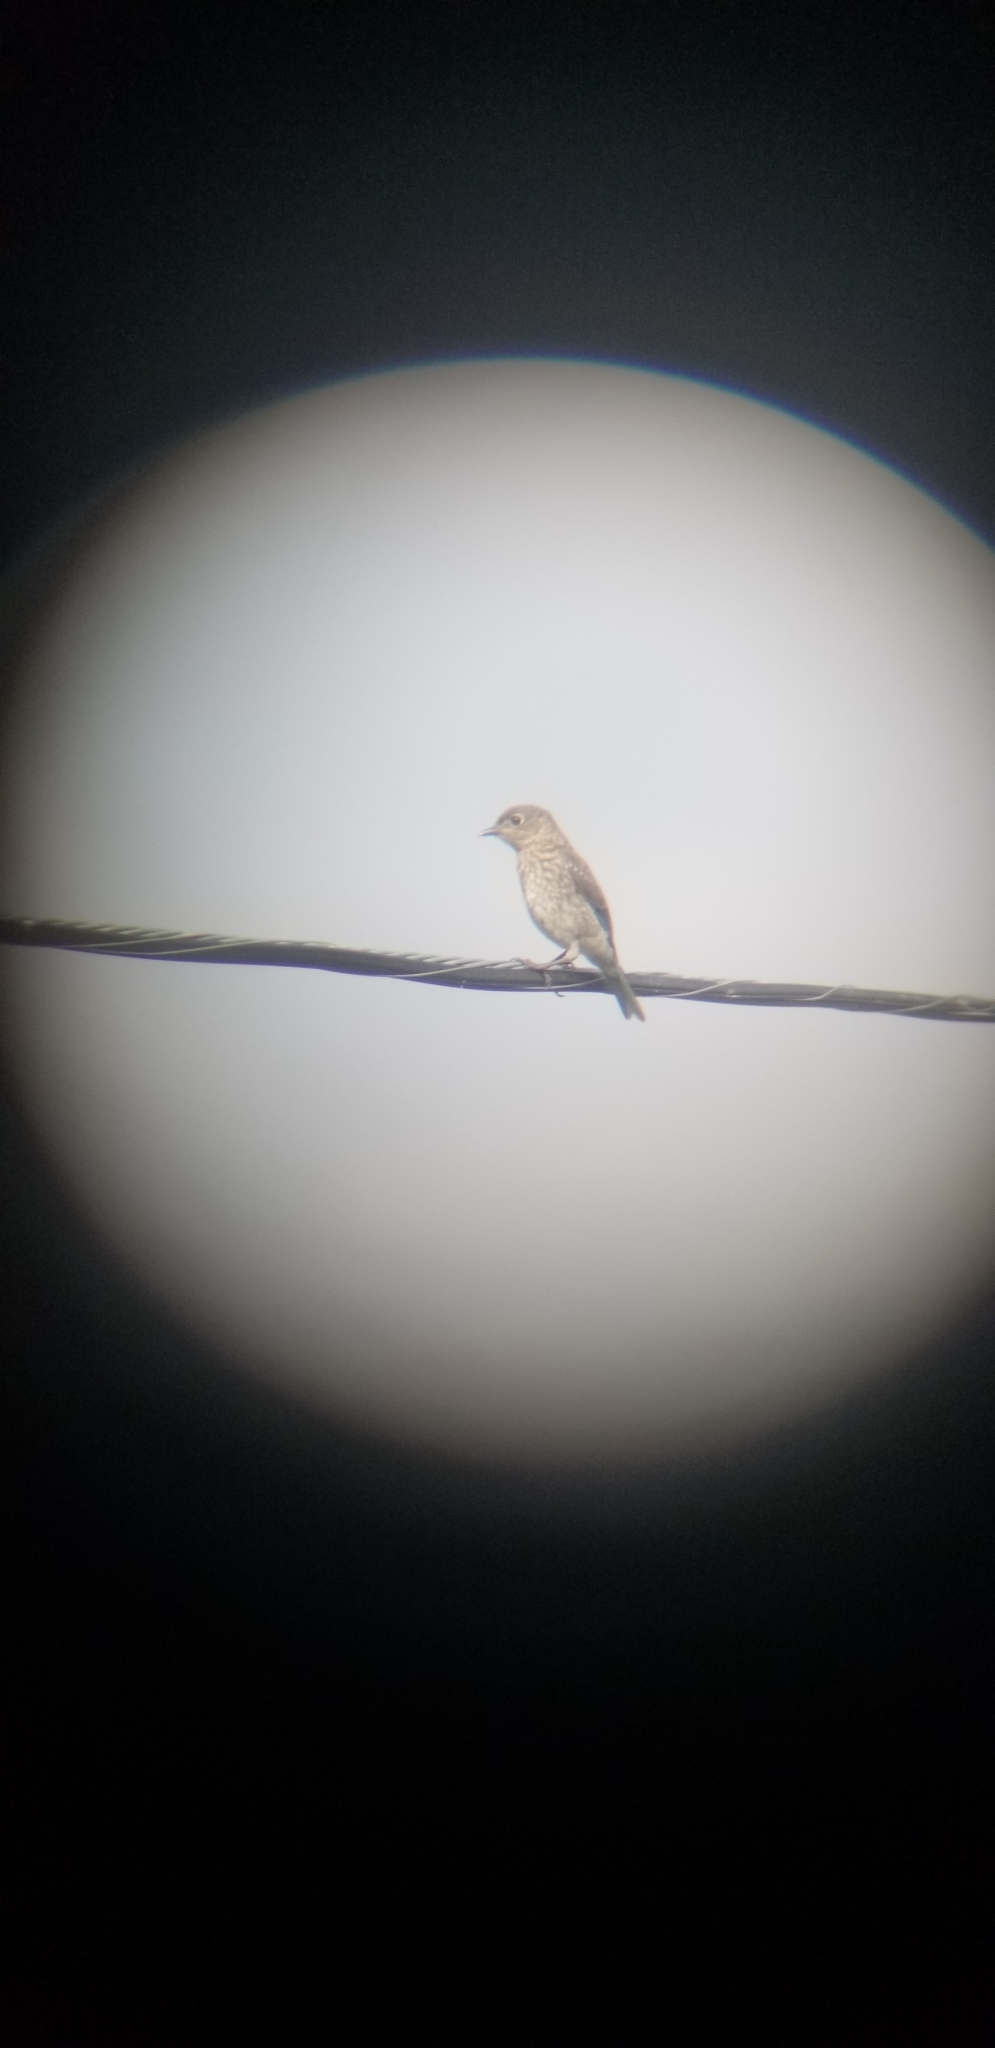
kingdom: Animalia
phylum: Chordata
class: Aves
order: Passeriformes
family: Turdidae
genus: Sialia
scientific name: Sialia sialis
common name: Eastern bluebird
